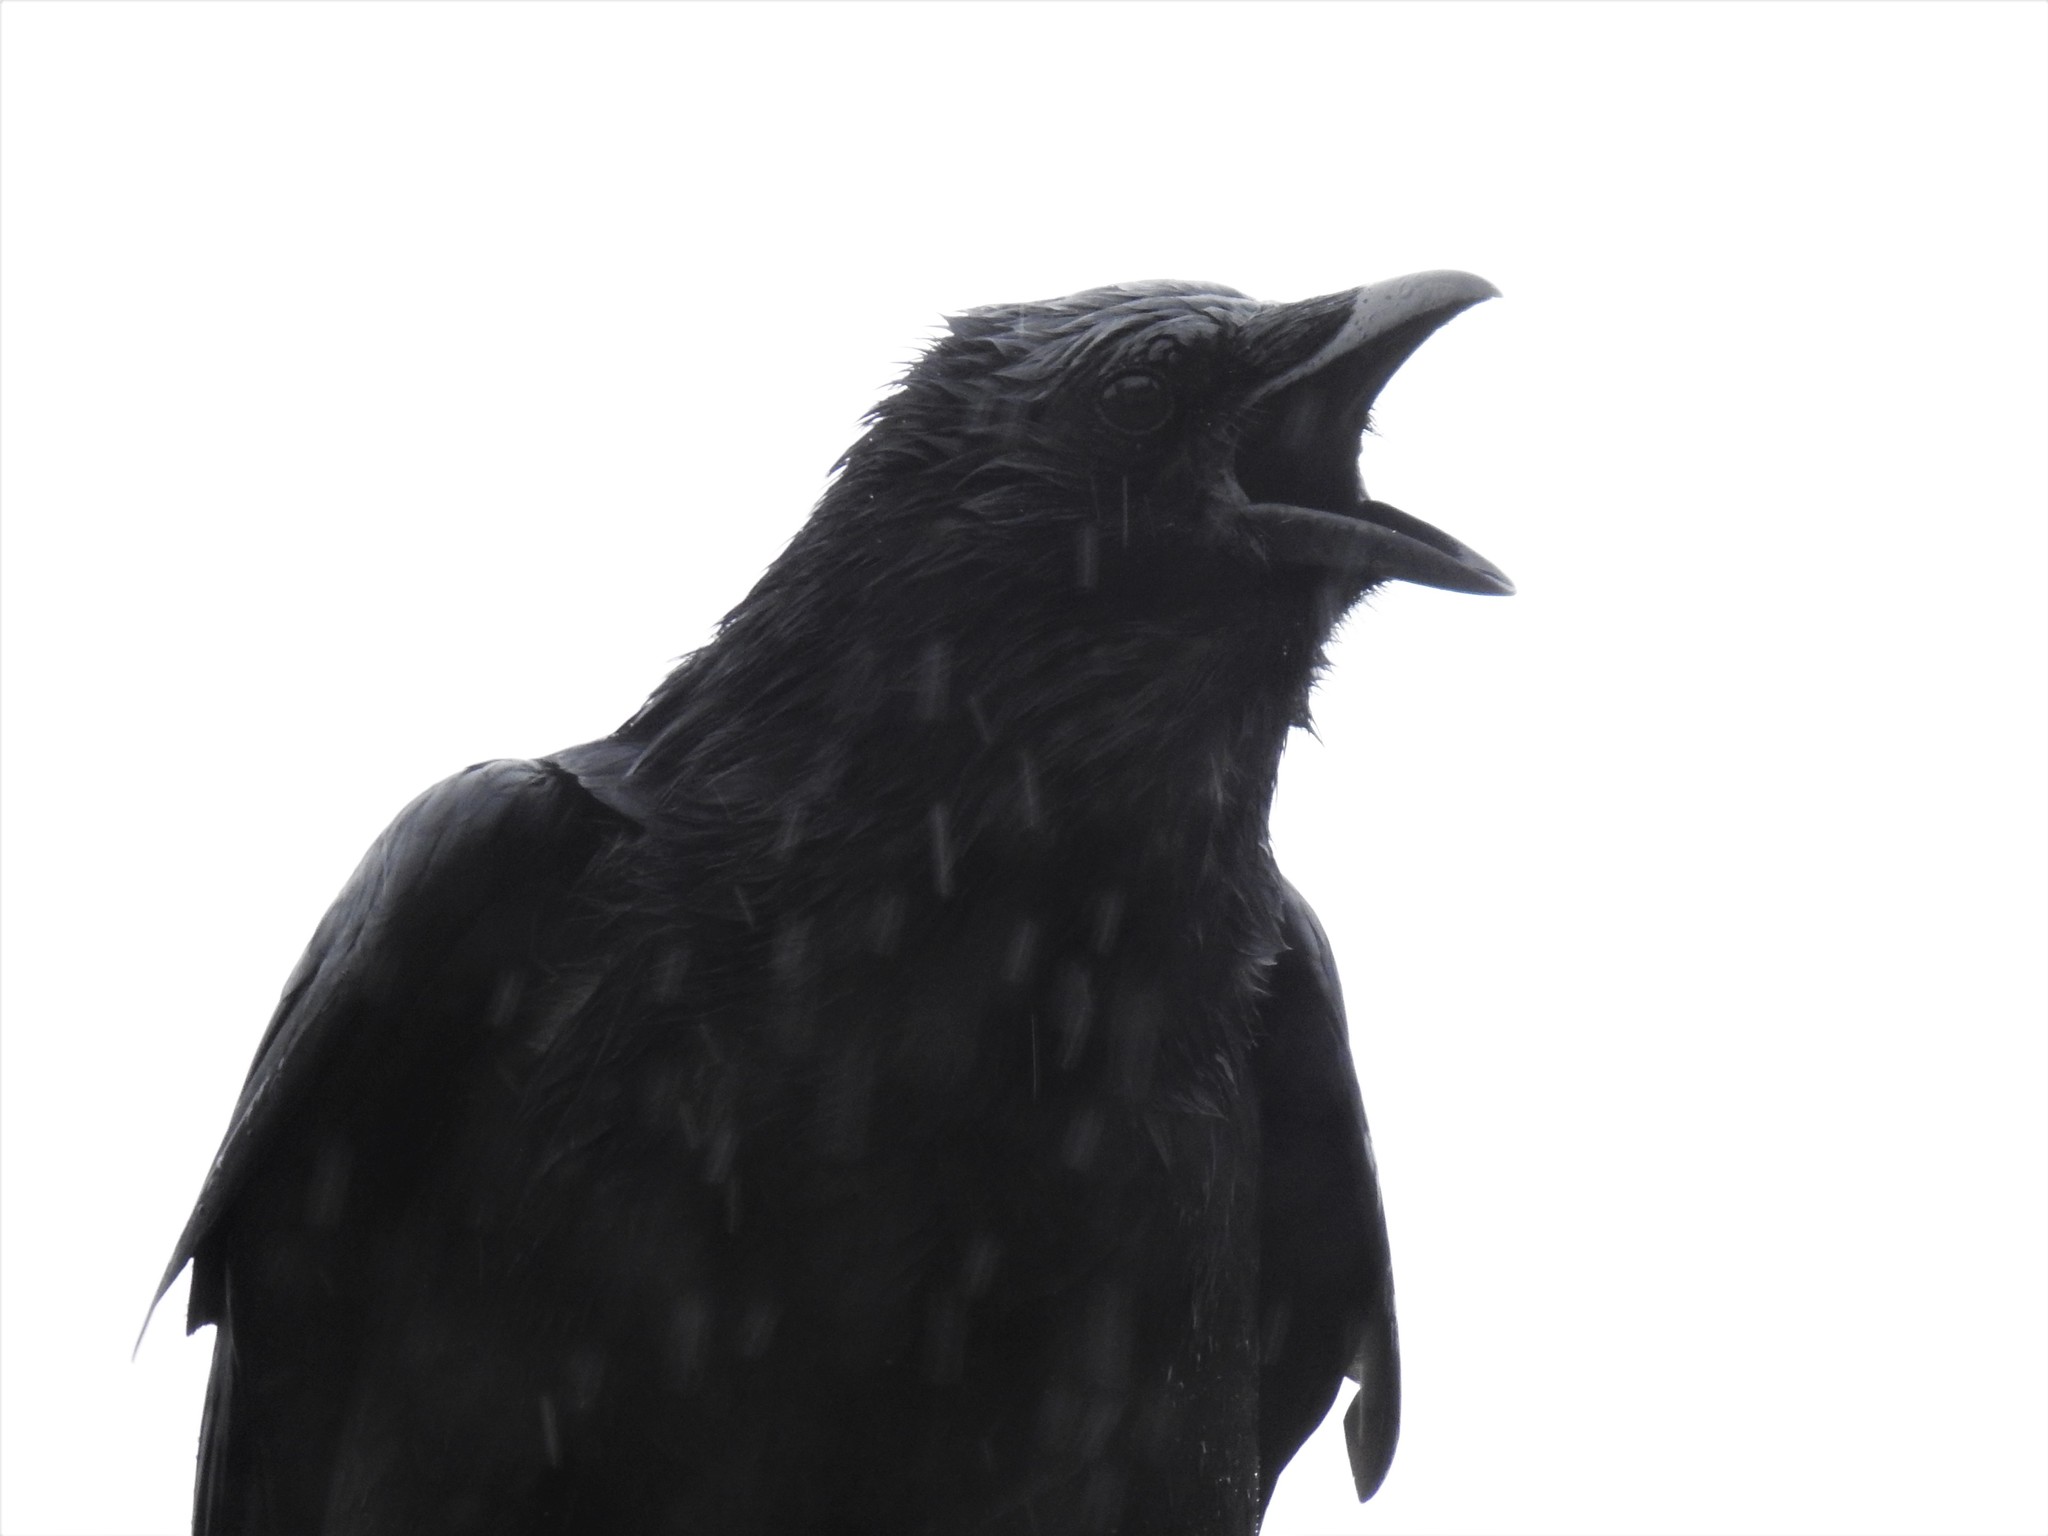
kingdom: Animalia
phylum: Chordata
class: Aves
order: Passeriformes
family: Corvidae
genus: Corvus
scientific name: Corvus brachyrhynchos
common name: American crow
